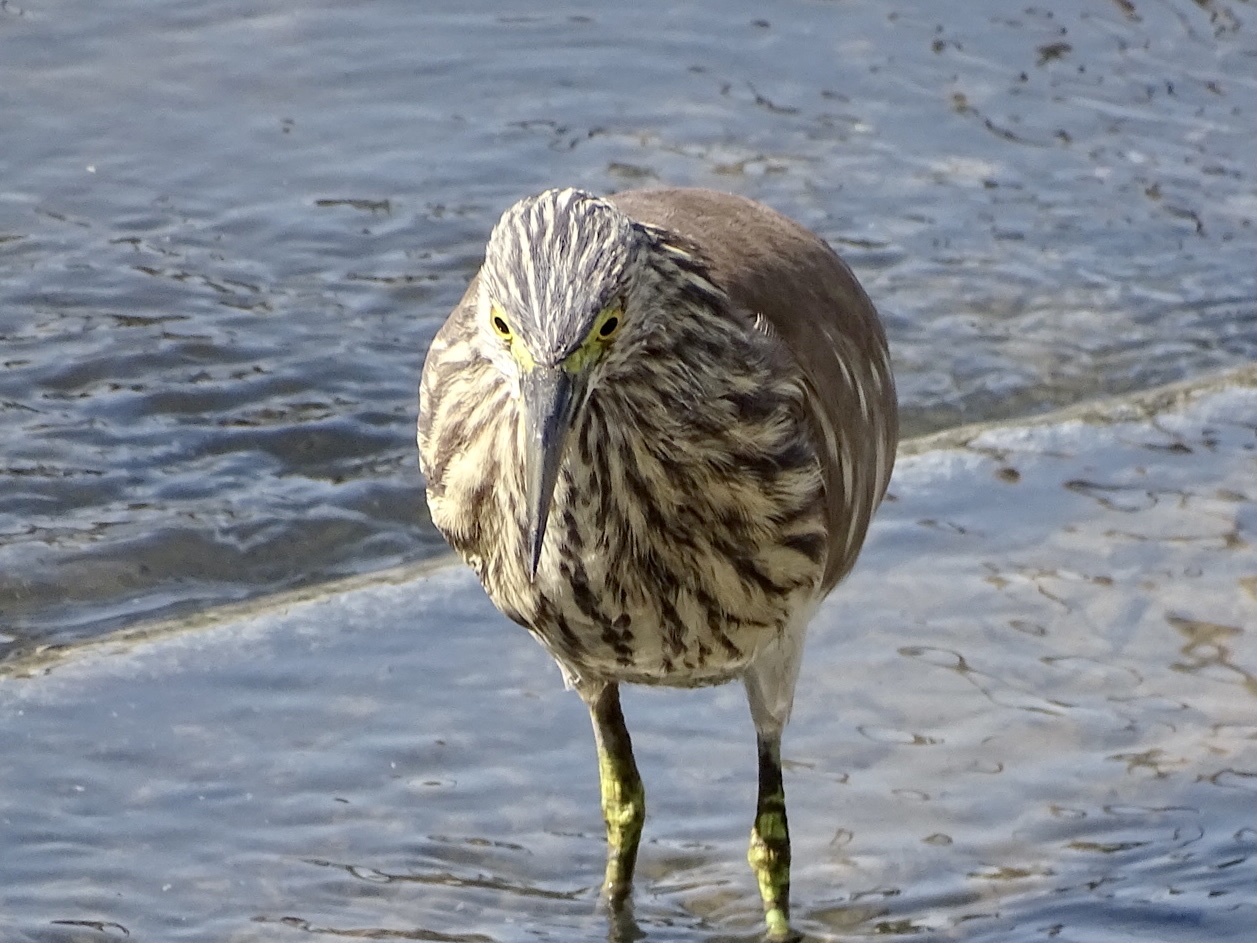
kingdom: Animalia
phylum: Chordata
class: Aves
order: Pelecaniformes
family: Ardeidae
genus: Ardeola
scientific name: Ardeola bacchus
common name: Chinese pond heron
